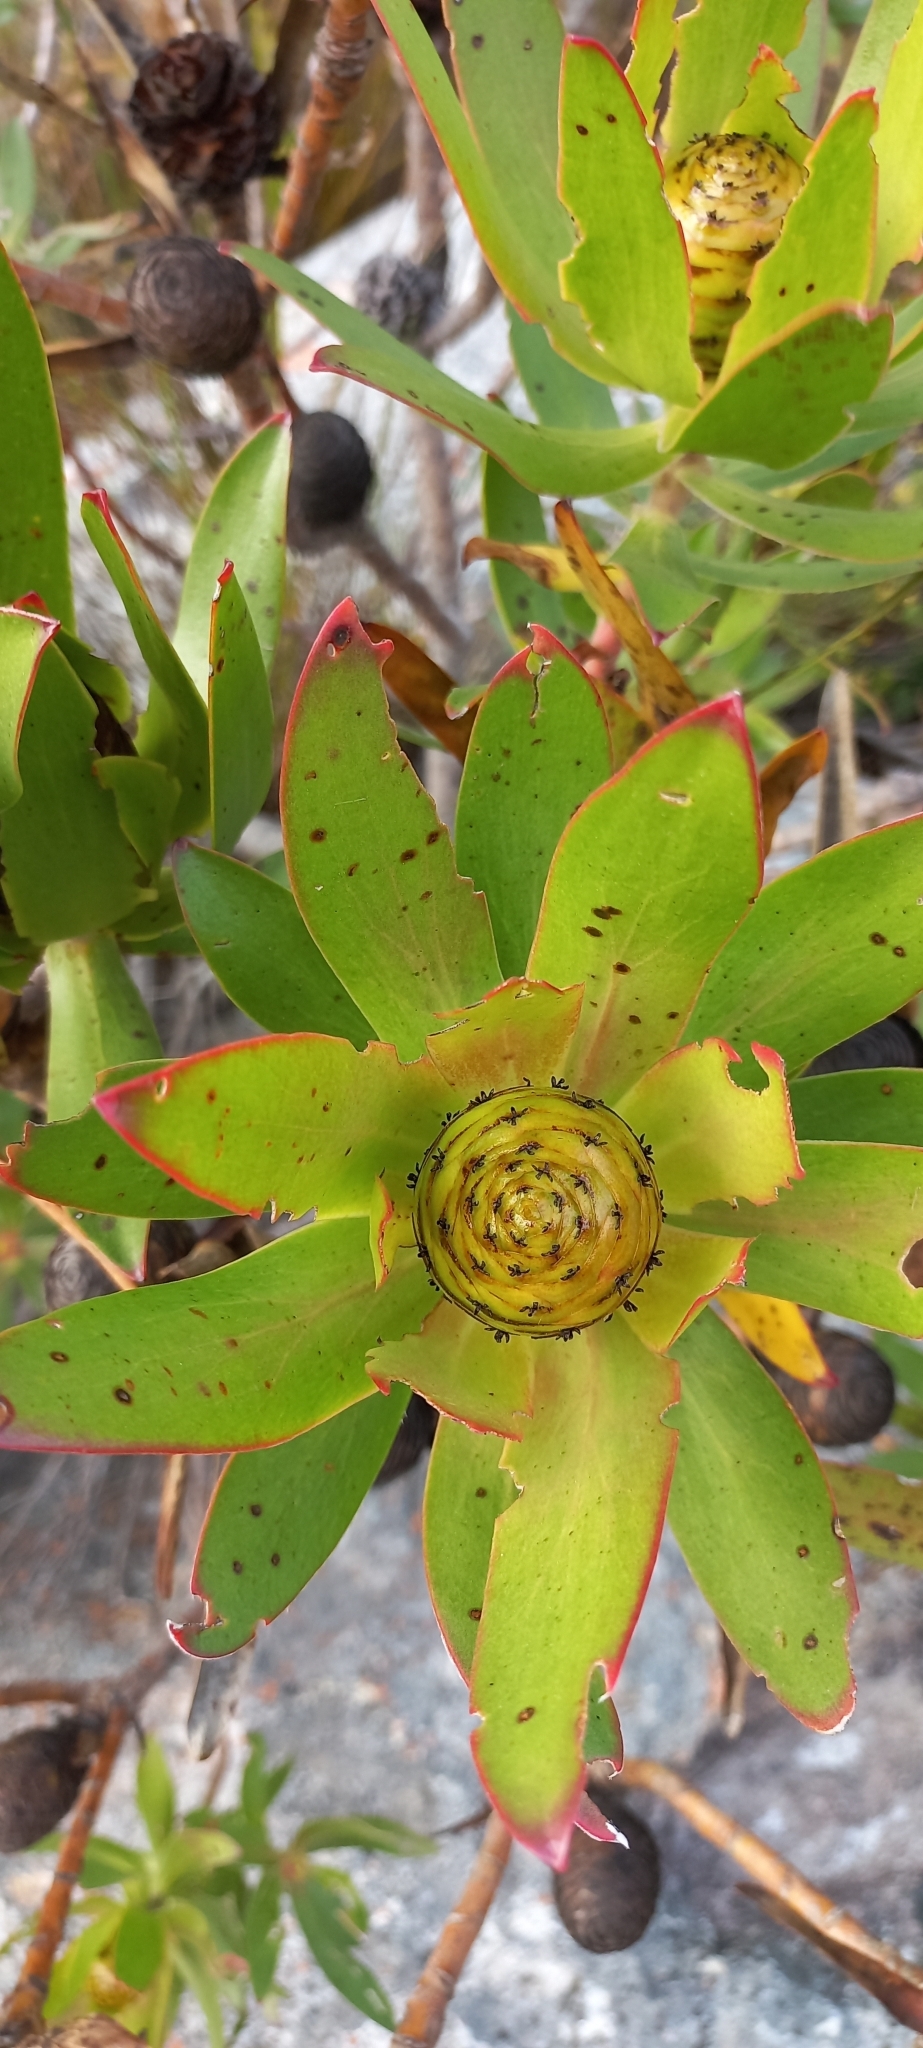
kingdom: Plantae
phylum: Tracheophyta
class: Magnoliopsida
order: Proteales
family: Proteaceae
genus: Leucadendron
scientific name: Leucadendron gandogeri
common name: Broad-leaf conebush
